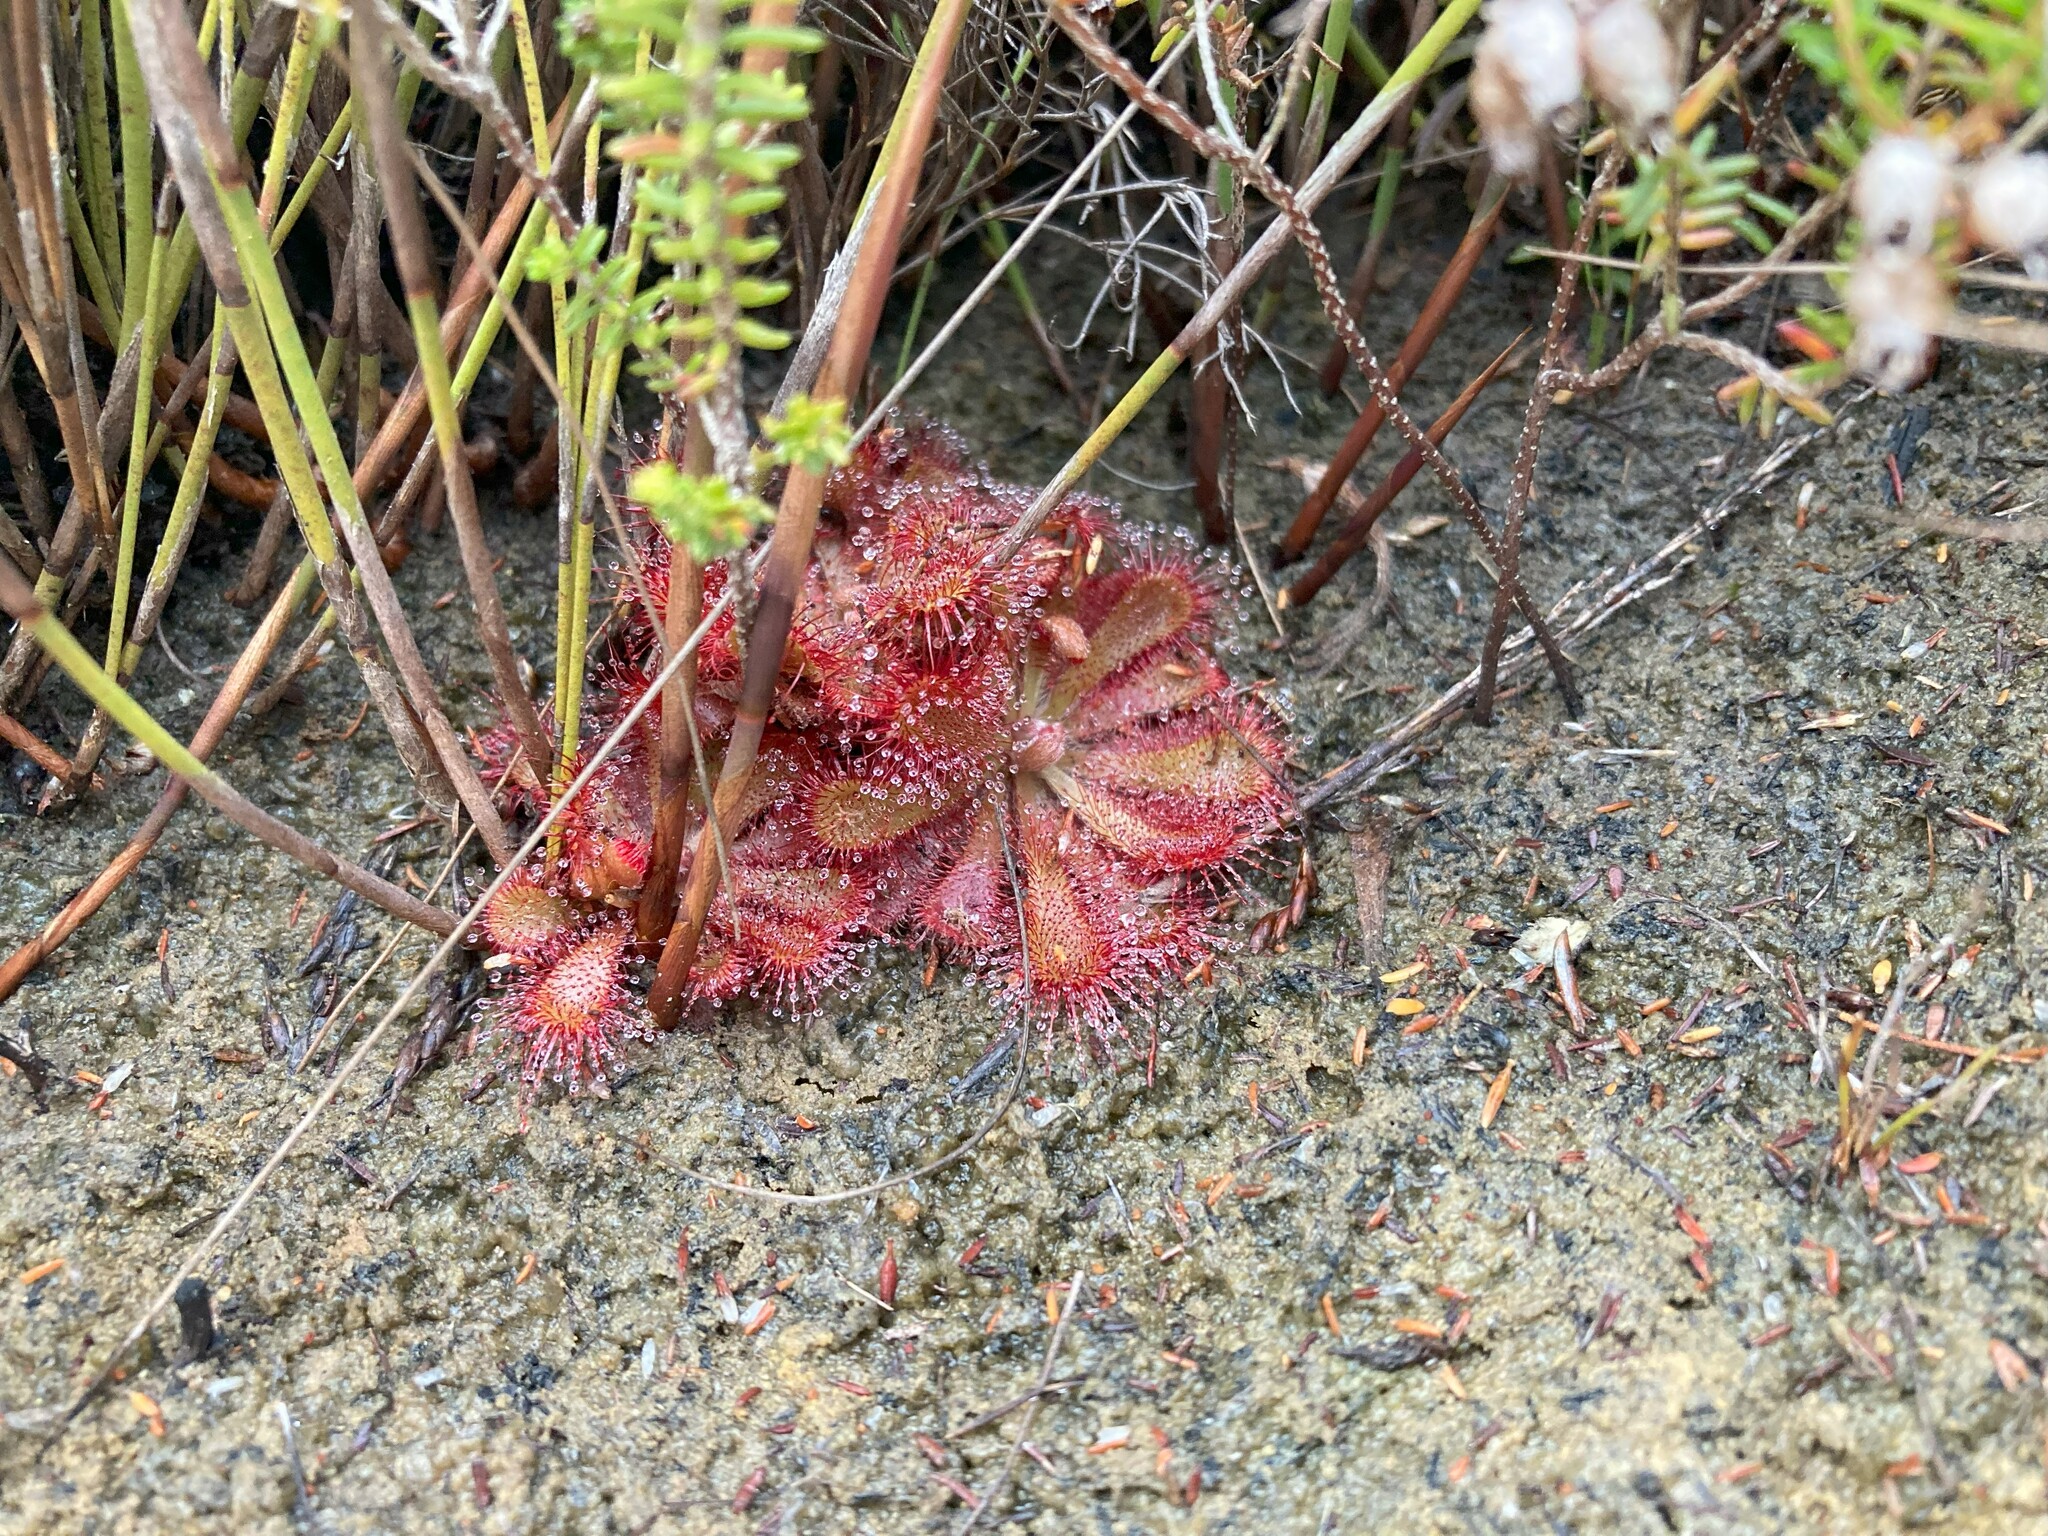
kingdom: Plantae
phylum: Tracheophyta
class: Magnoliopsida
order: Caryophyllales
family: Droseraceae
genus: Drosera
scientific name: Drosera aliciae
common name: Alice sundew
